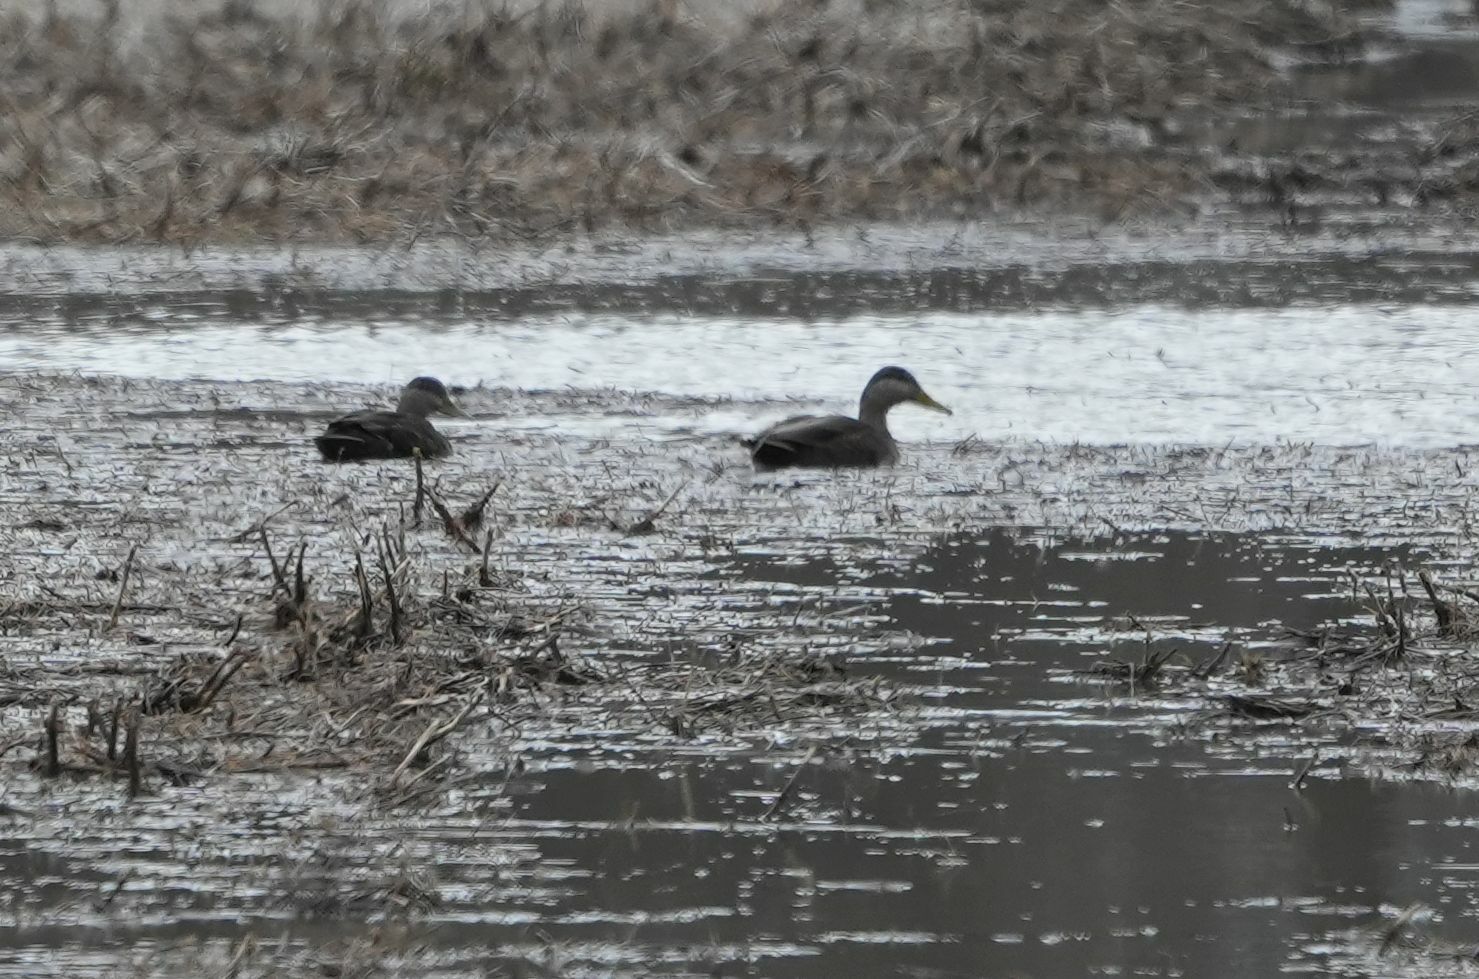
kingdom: Animalia
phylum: Chordata
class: Aves
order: Anseriformes
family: Anatidae
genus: Anas
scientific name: Anas rubripes
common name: American black duck
